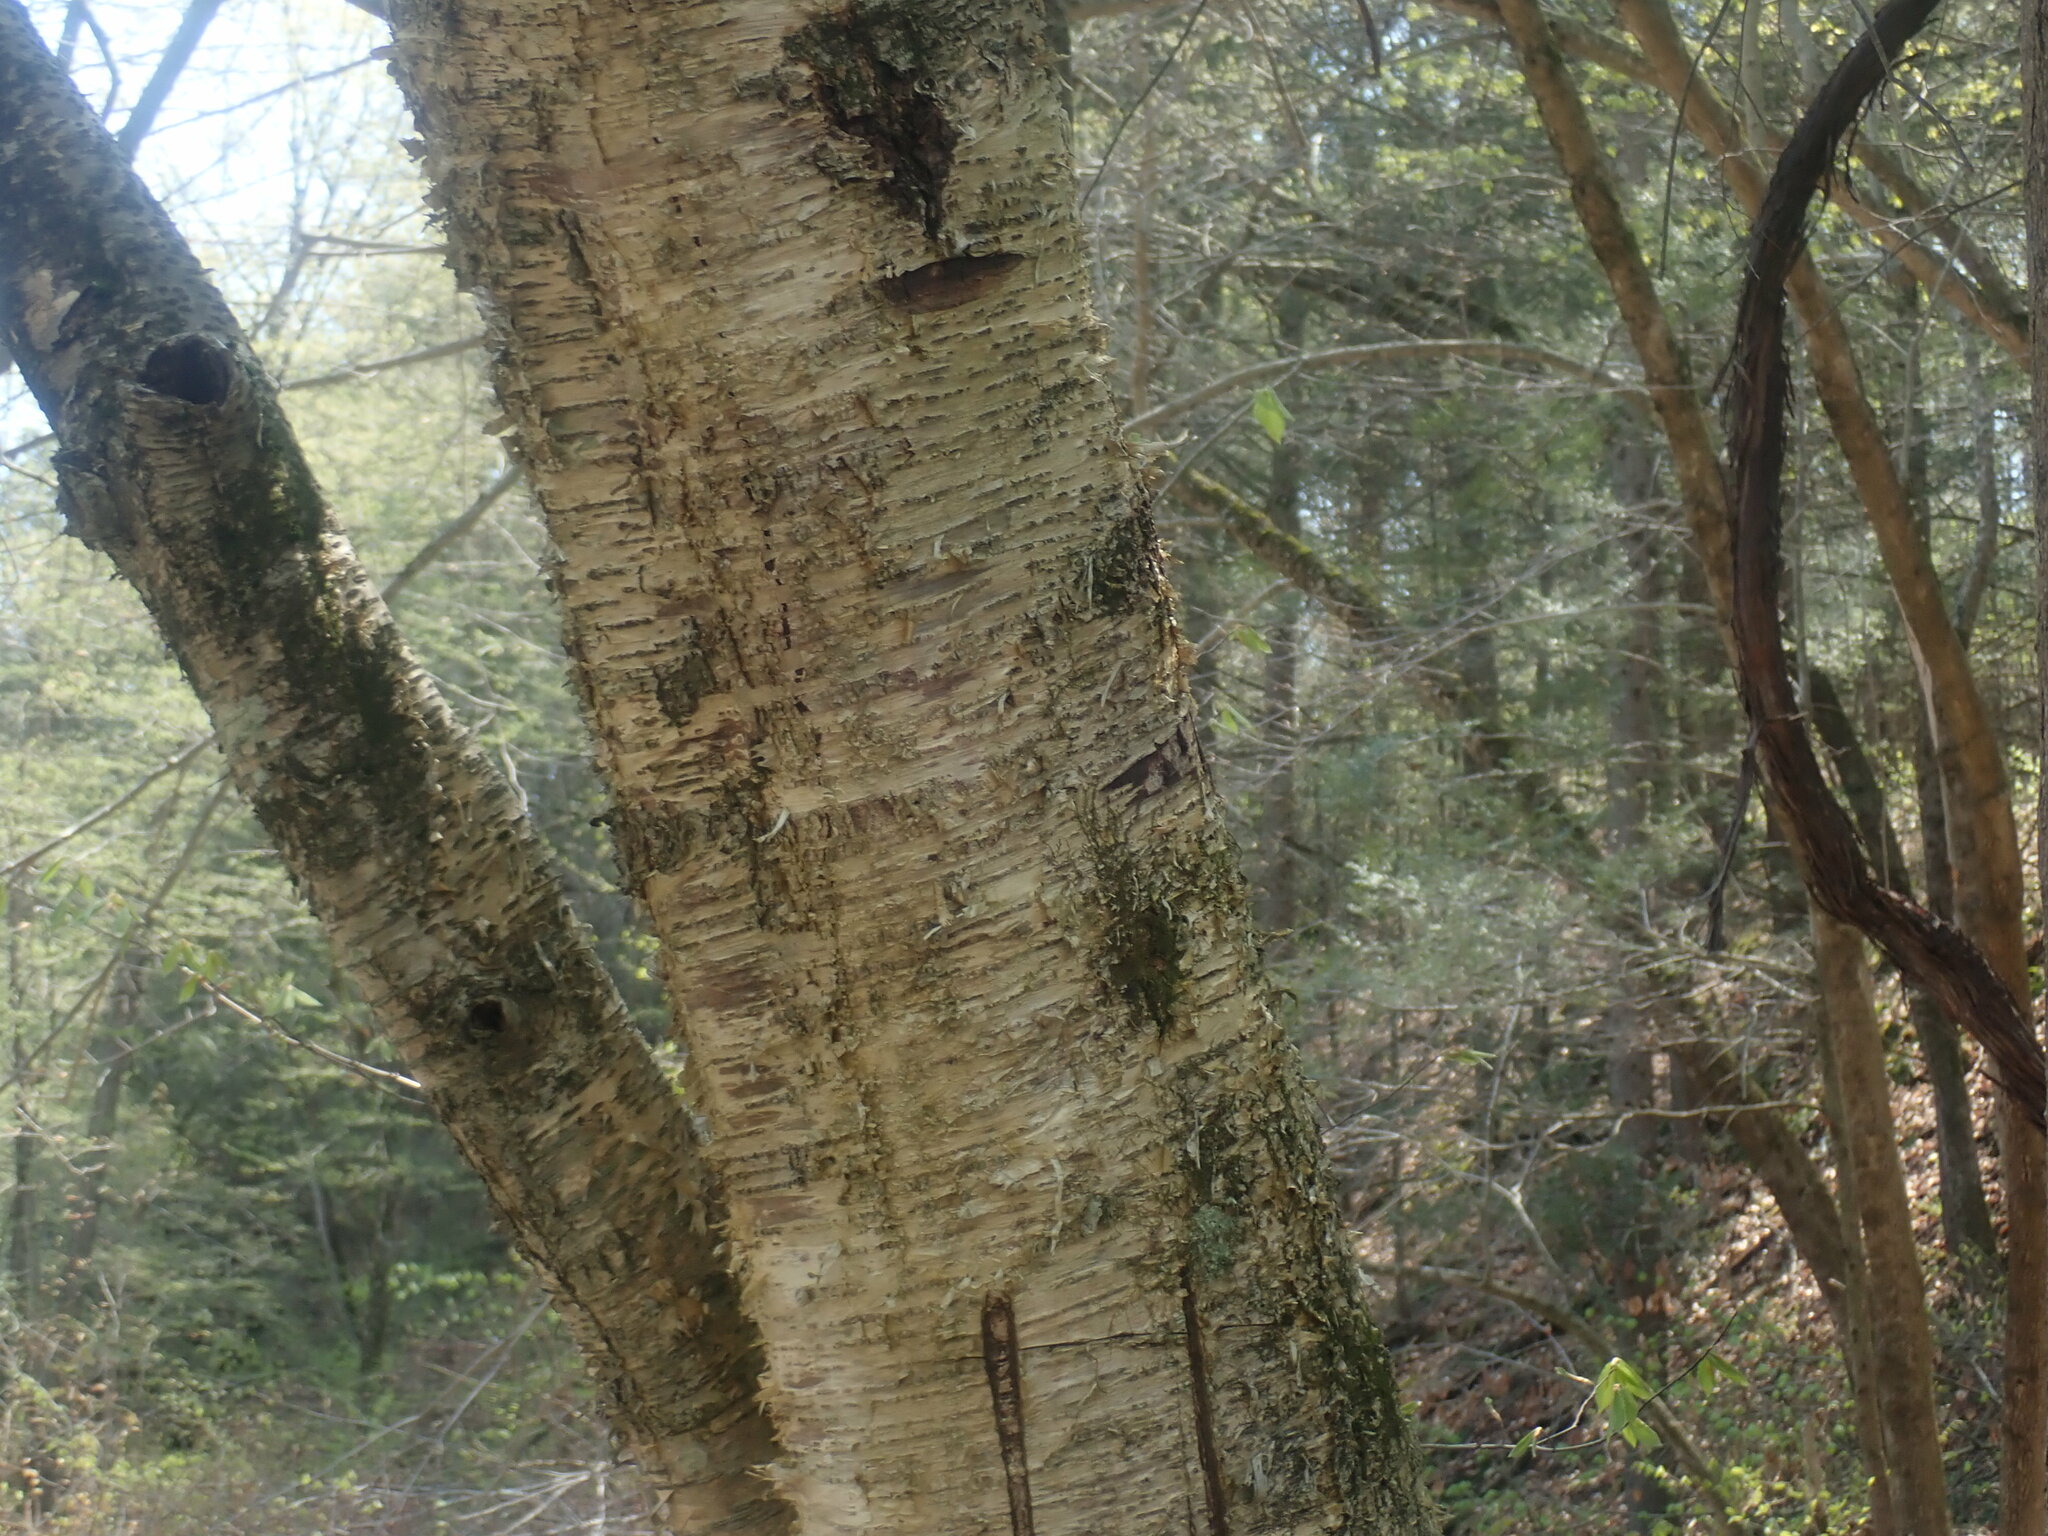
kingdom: Plantae
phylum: Tracheophyta
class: Magnoliopsida
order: Fagales
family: Betulaceae
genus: Betula
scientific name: Betula alleghaniensis
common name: Yellow birch
